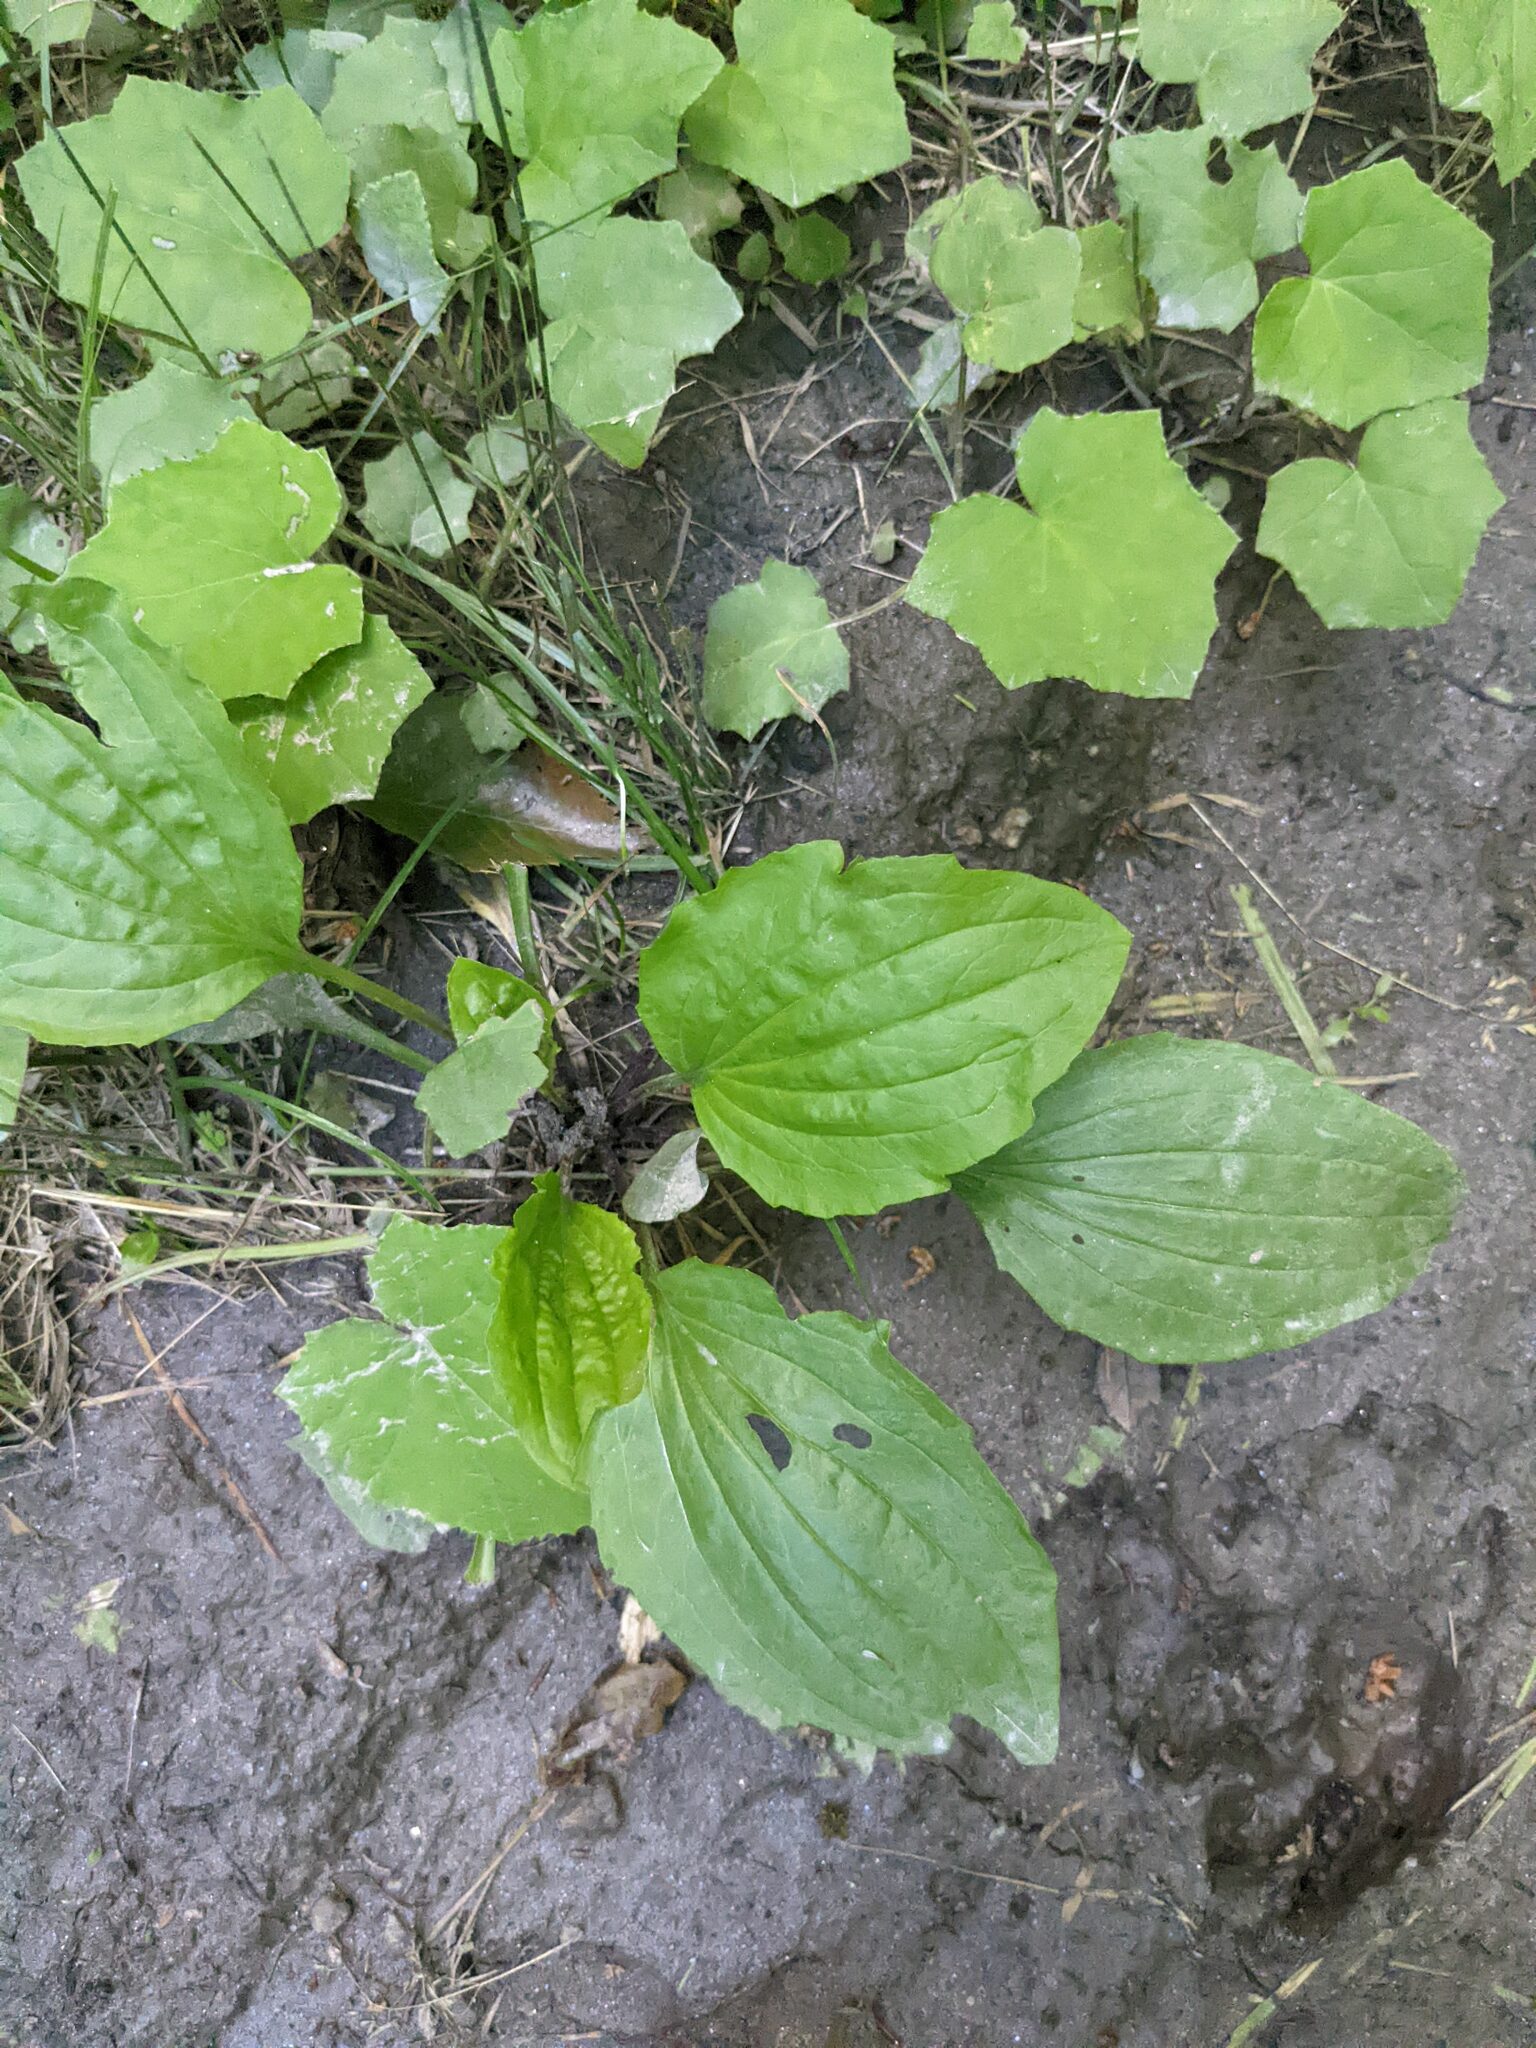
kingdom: Plantae
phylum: Tracheophyta
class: Magnoliopsida
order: Lamiales
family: Plantaginaceae
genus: Plantago
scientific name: Plantago rugelii
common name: American plantain
